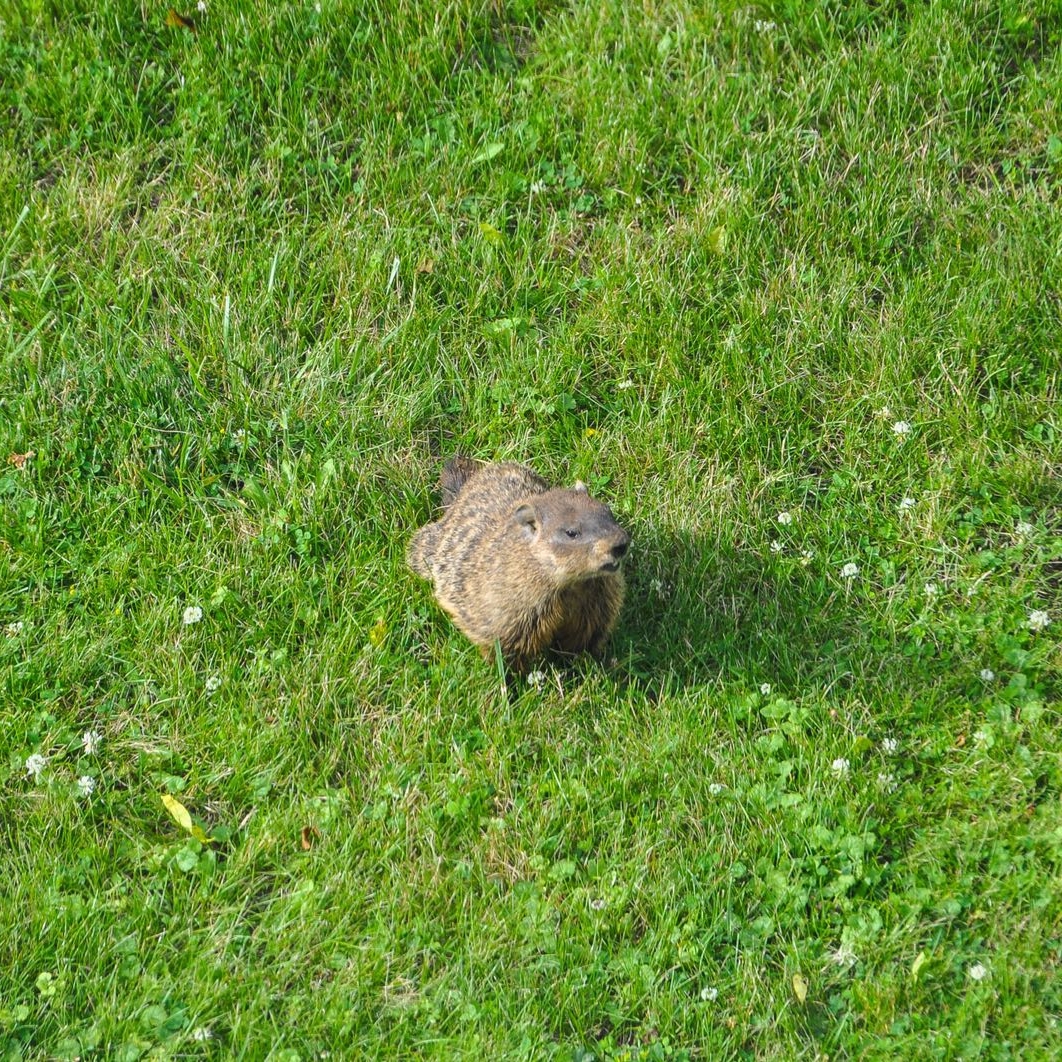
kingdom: Animalia
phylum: Chordata
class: Mammalia
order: Rodentia
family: Sciuridae
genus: Marmota
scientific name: Marmota monax
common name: Groundhog
